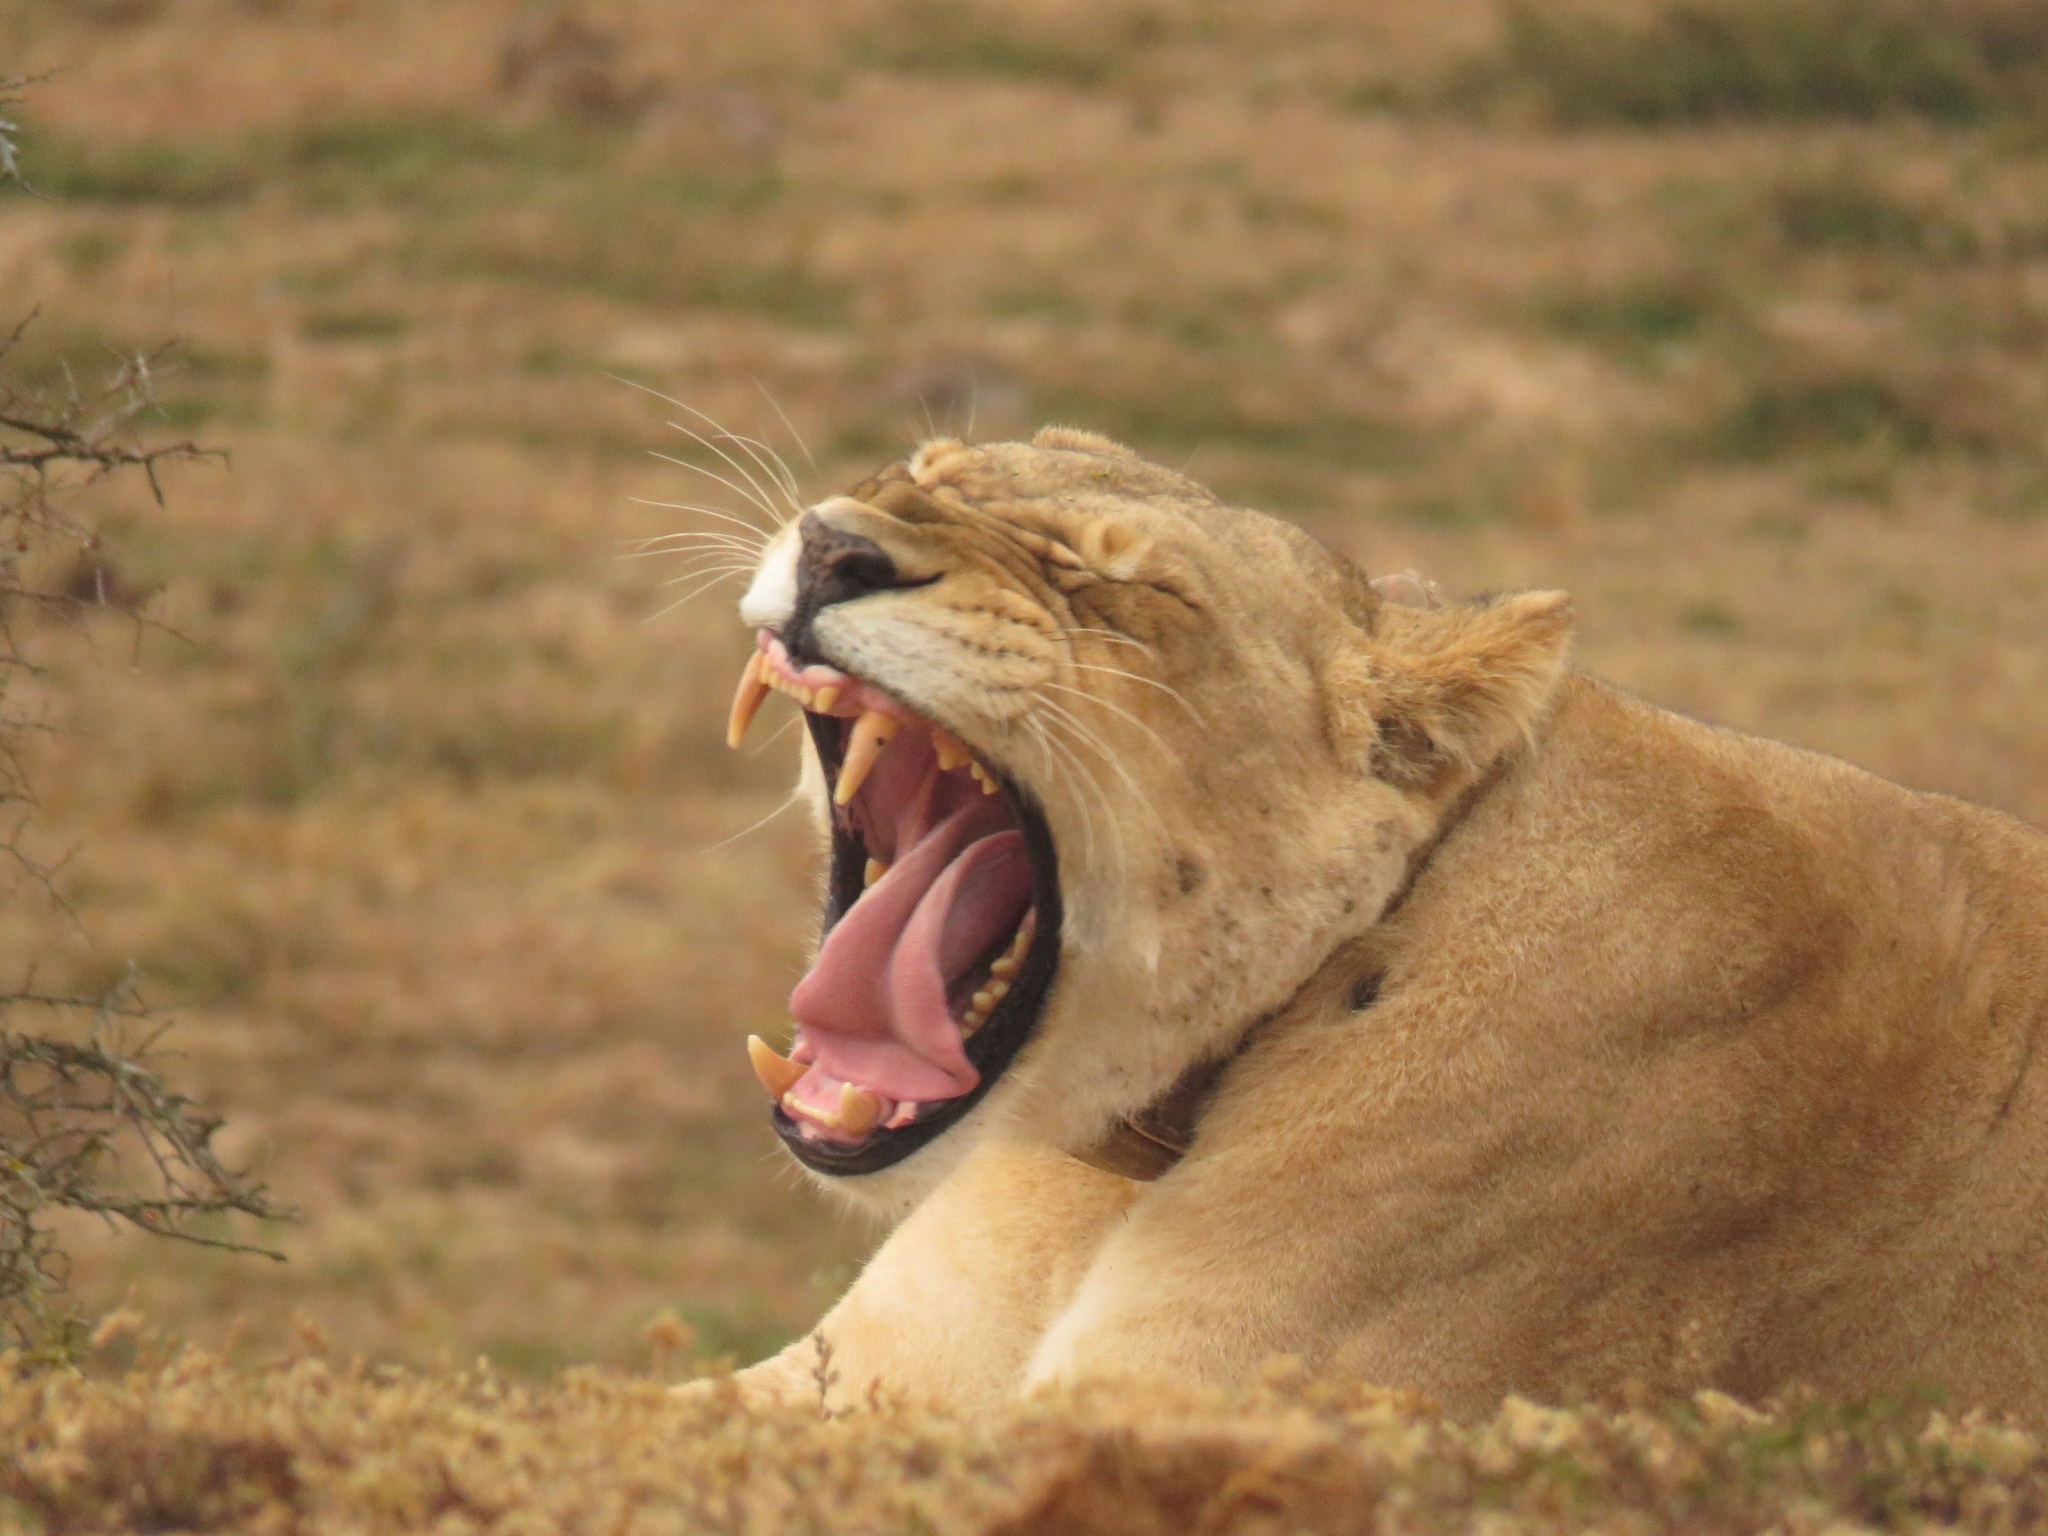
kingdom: Animalia
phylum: Chordata
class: Mammalia
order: Carnivora
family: Felidae
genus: Panthera
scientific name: Panthera leo
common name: Lion
